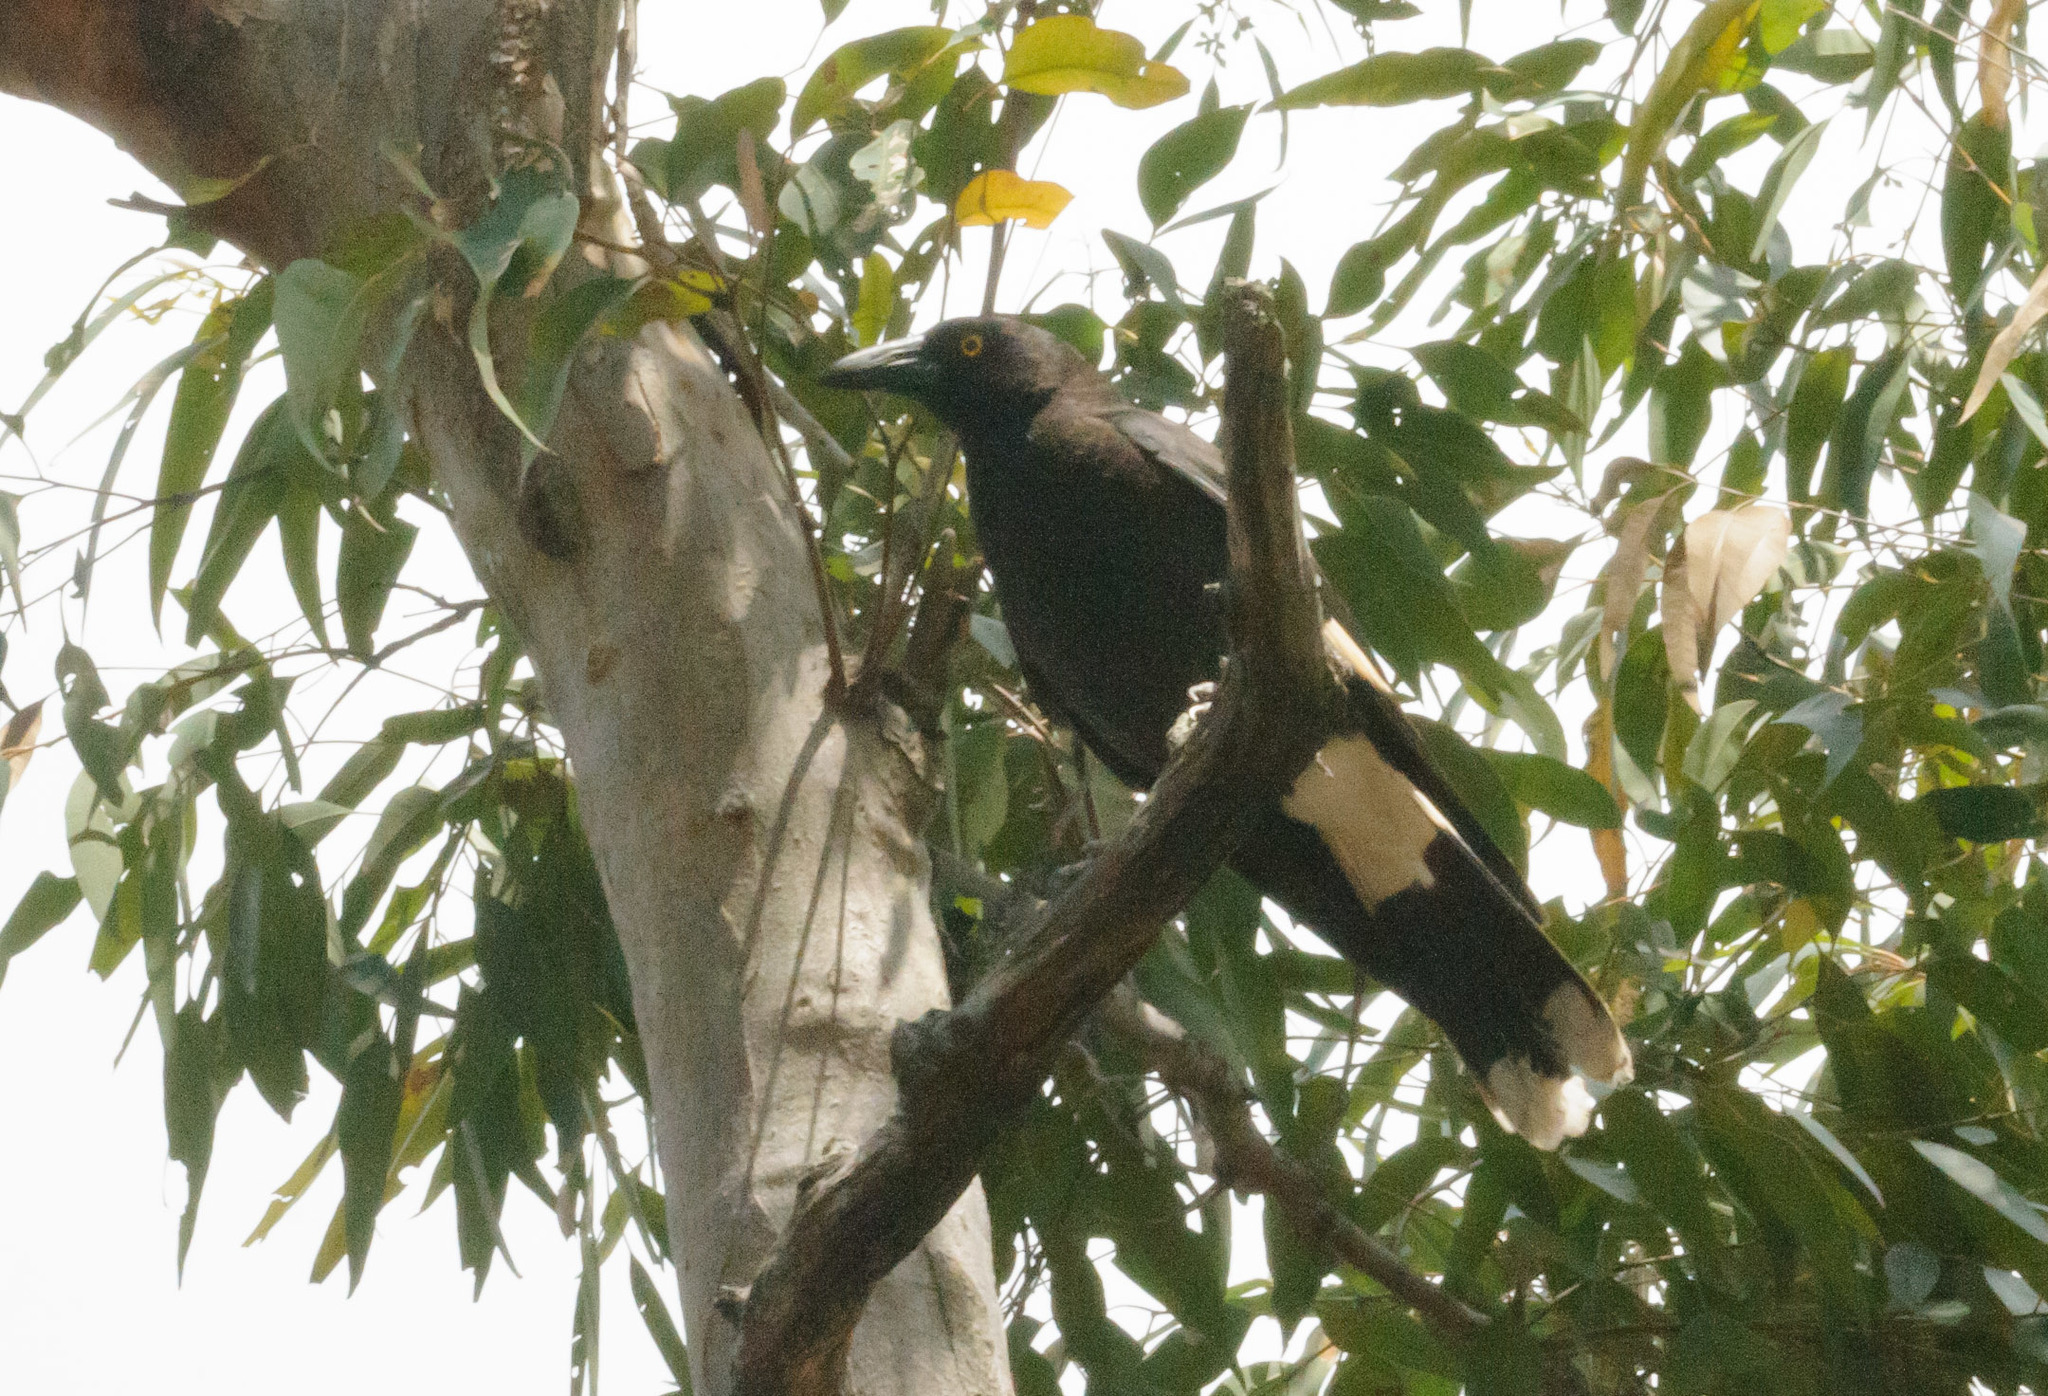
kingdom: Animalia
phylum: Chordata
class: Aves
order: Passeriformes
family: Cracticidae
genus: Strepera
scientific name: Strepera graculina
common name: Pied currawong
